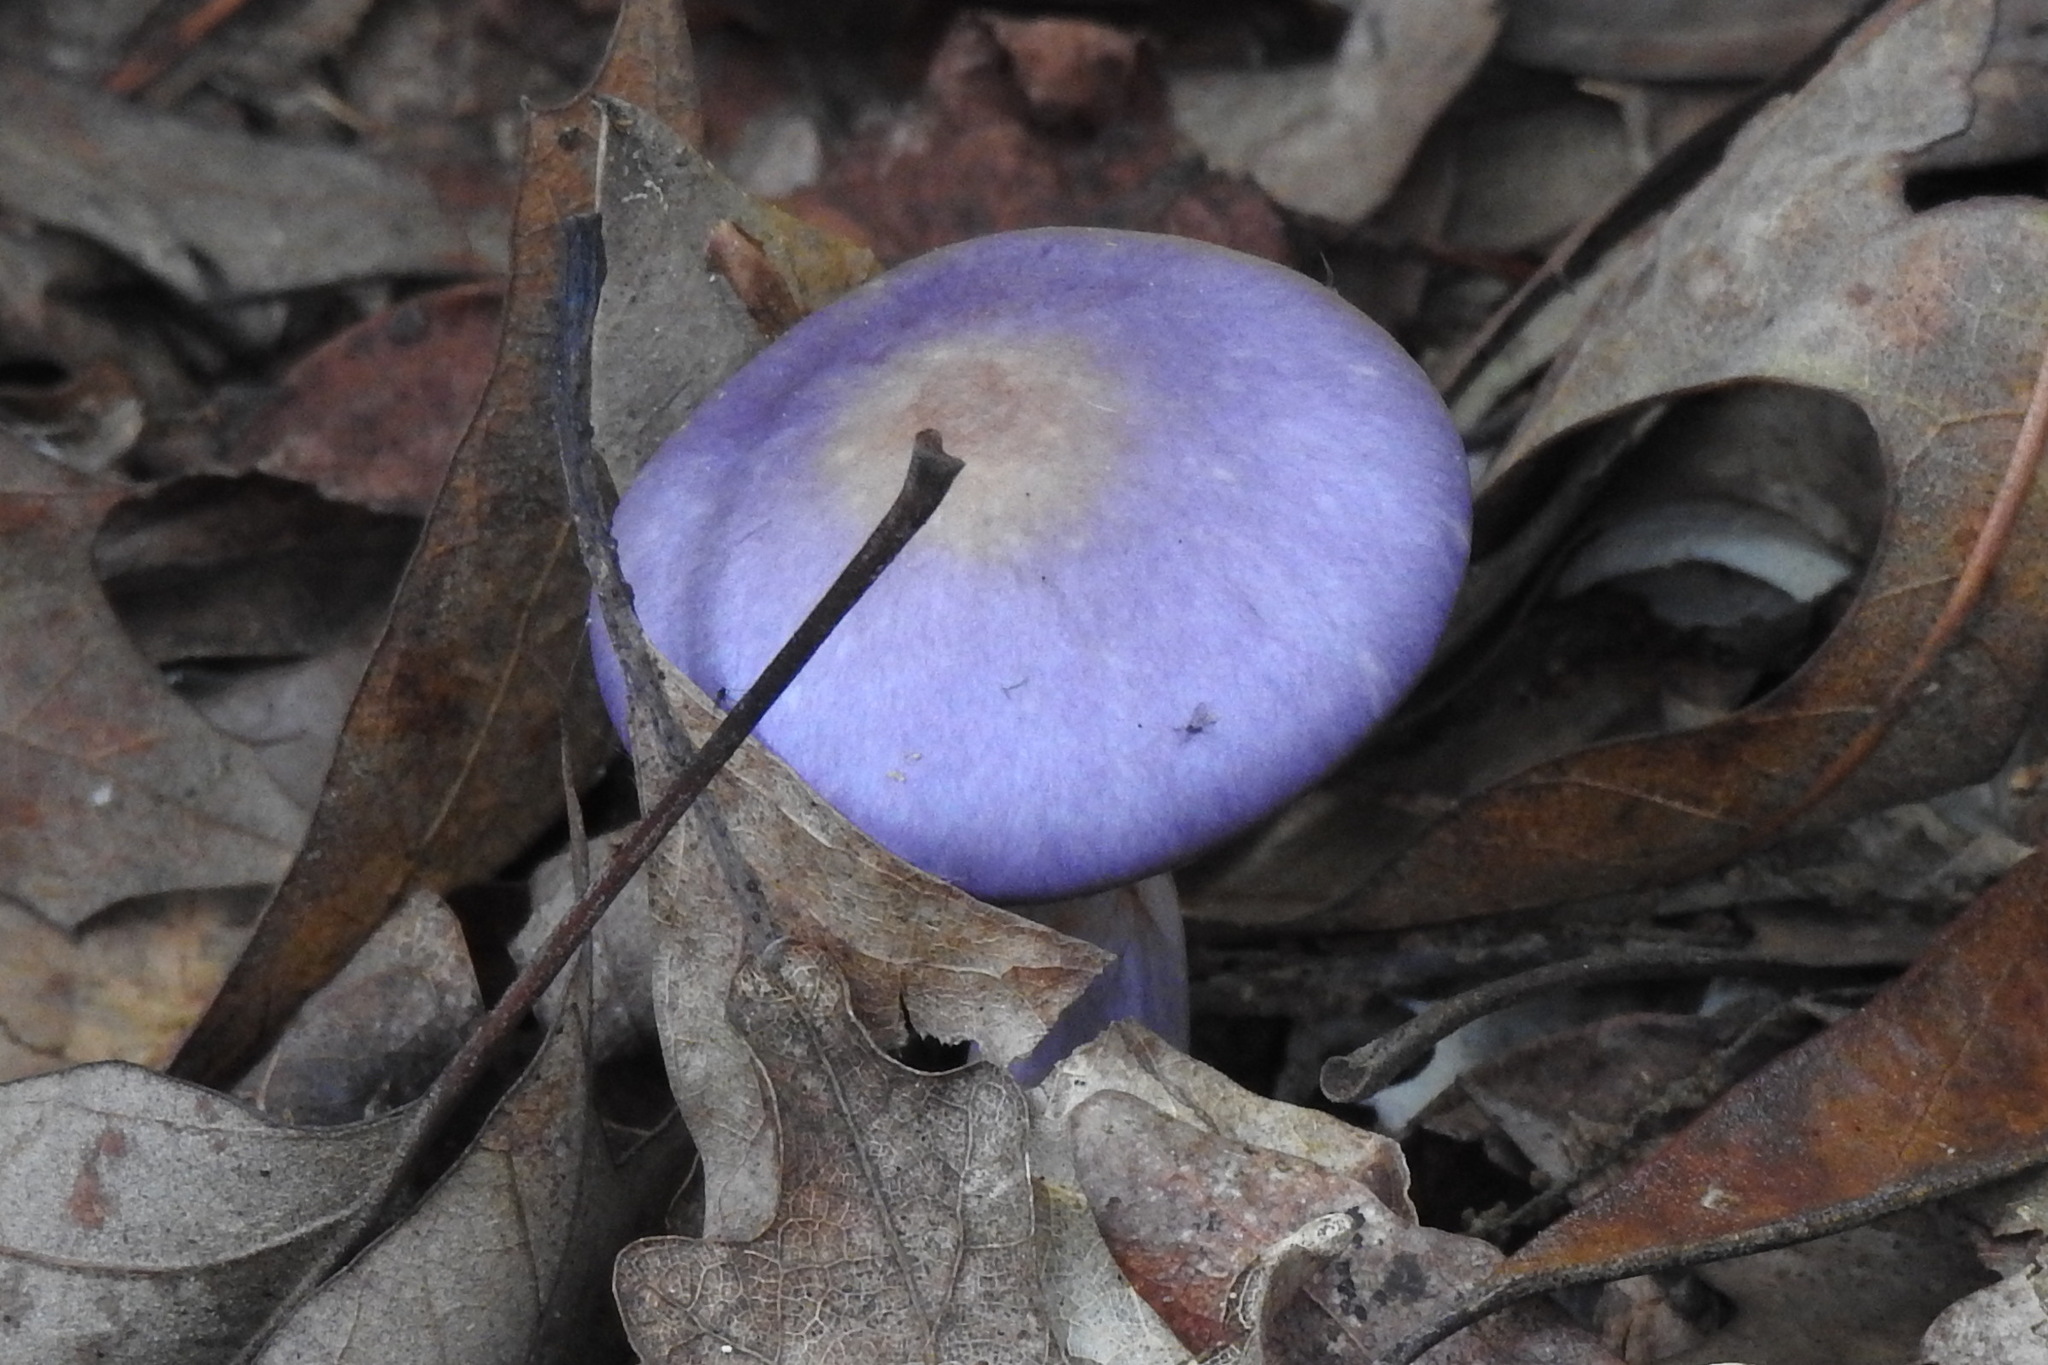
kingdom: Fungi
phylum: Basidiomycota
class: Agaricomycetes
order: Agaricales
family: Cortinariaceae
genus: Cortinarius
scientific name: Cortinarius iodes
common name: Viscid violet cort
